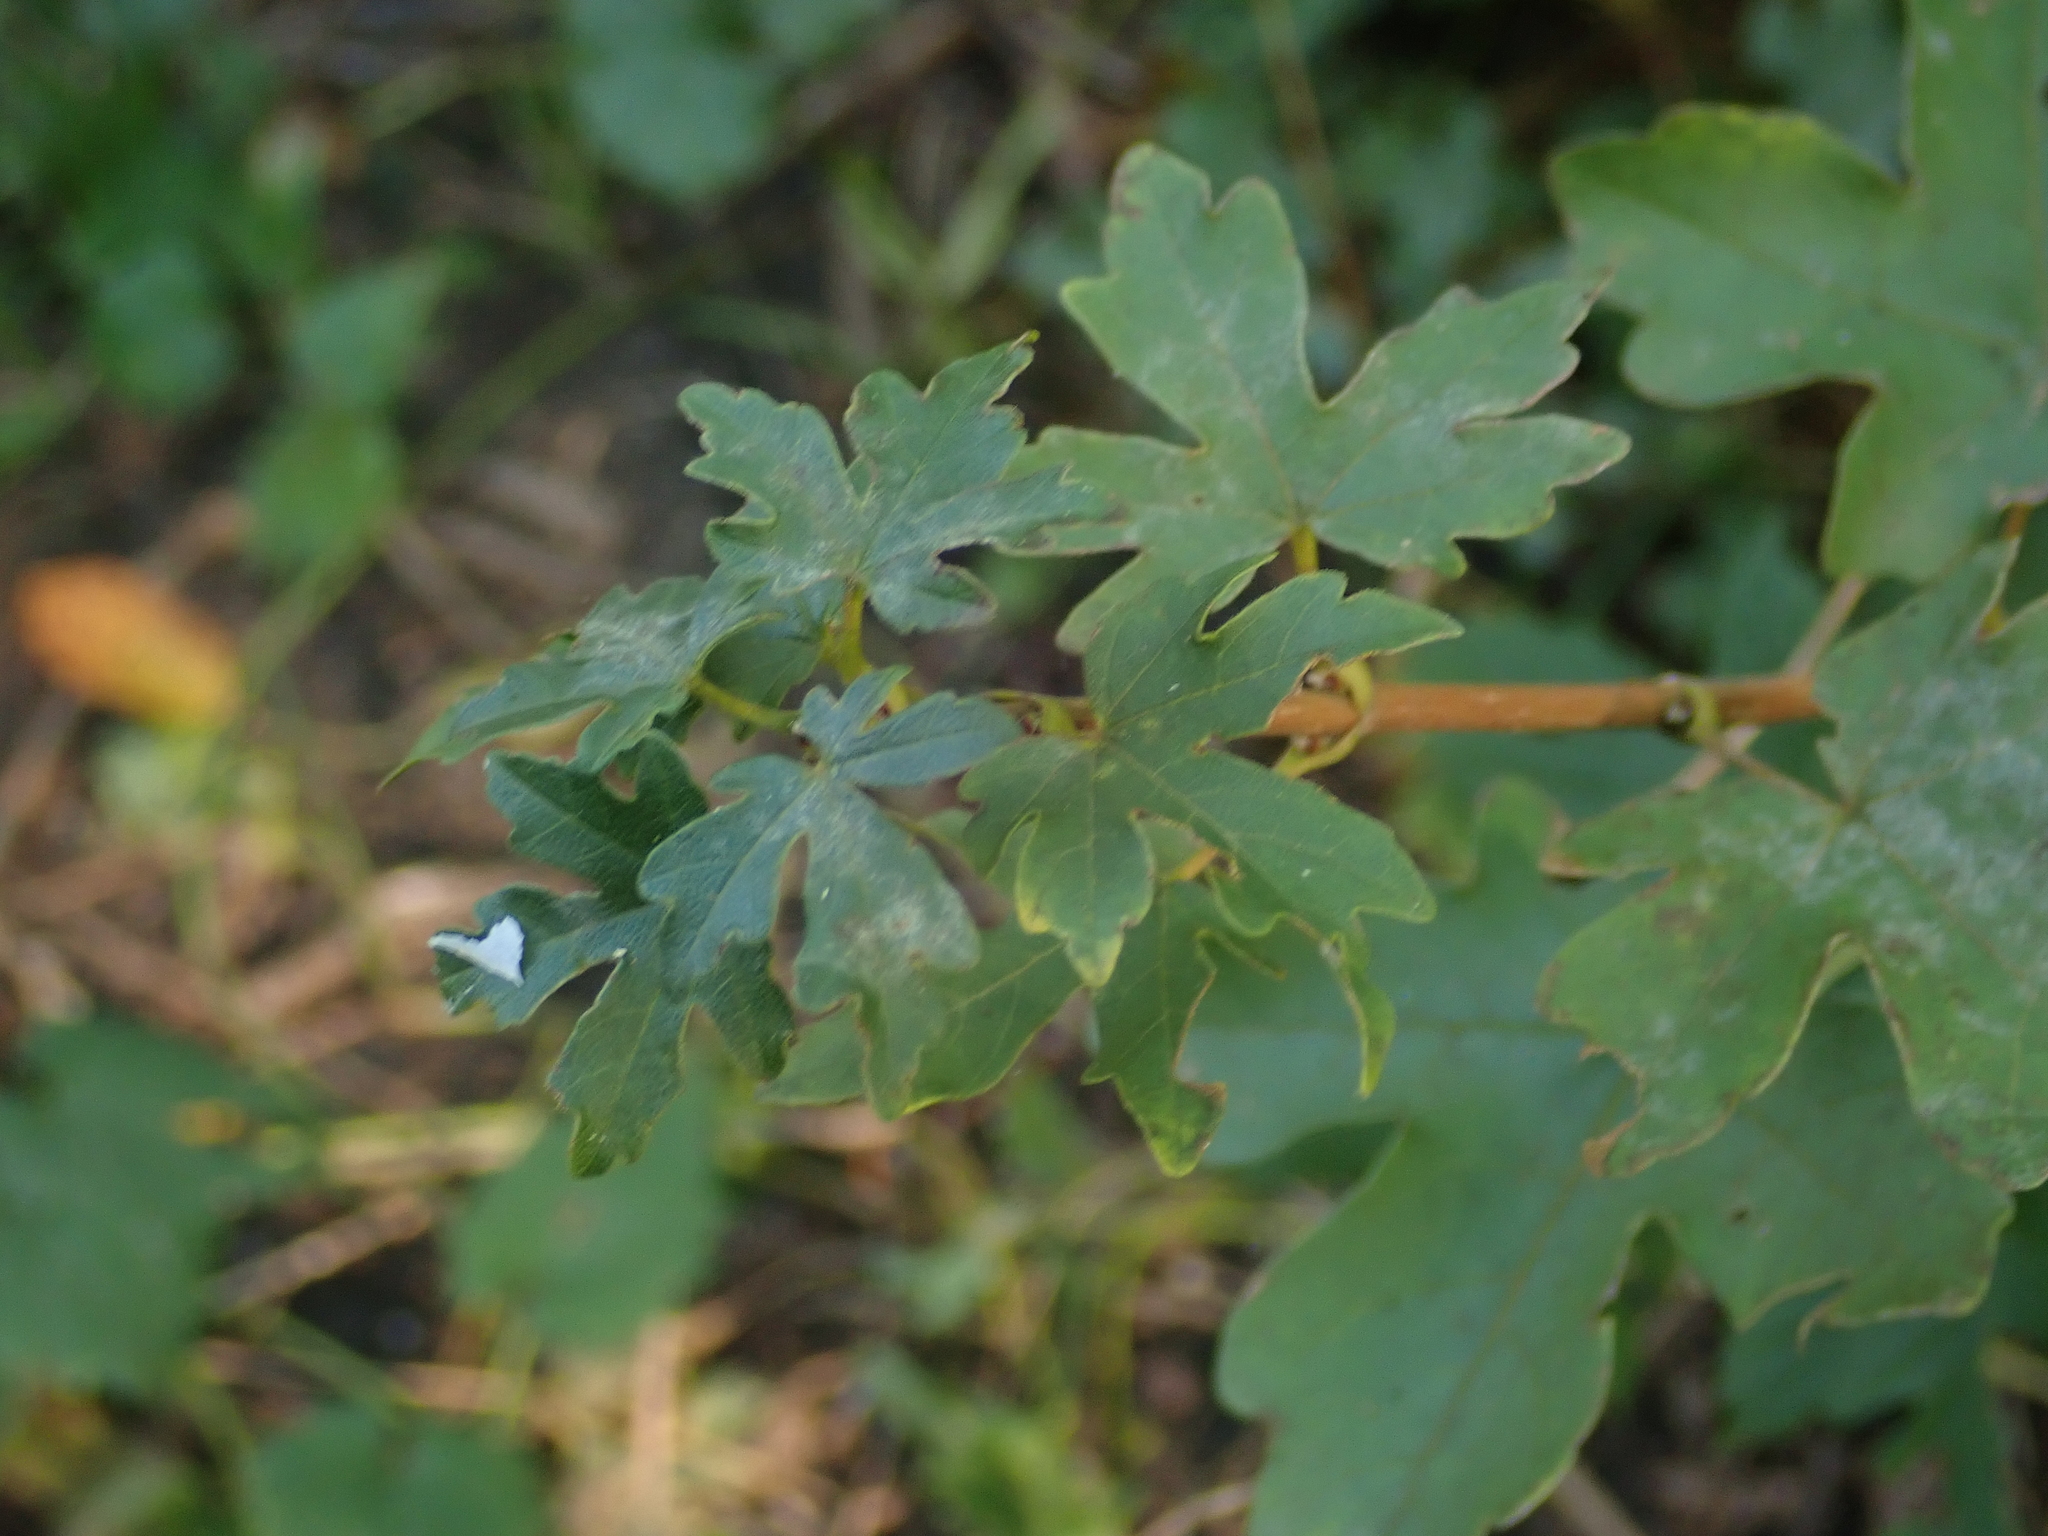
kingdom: Plantae
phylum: Tracheophyta
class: Magnoliopsida
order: Sapindales
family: Sapindaceae
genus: Acer
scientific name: Acer campestre
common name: Field maple
